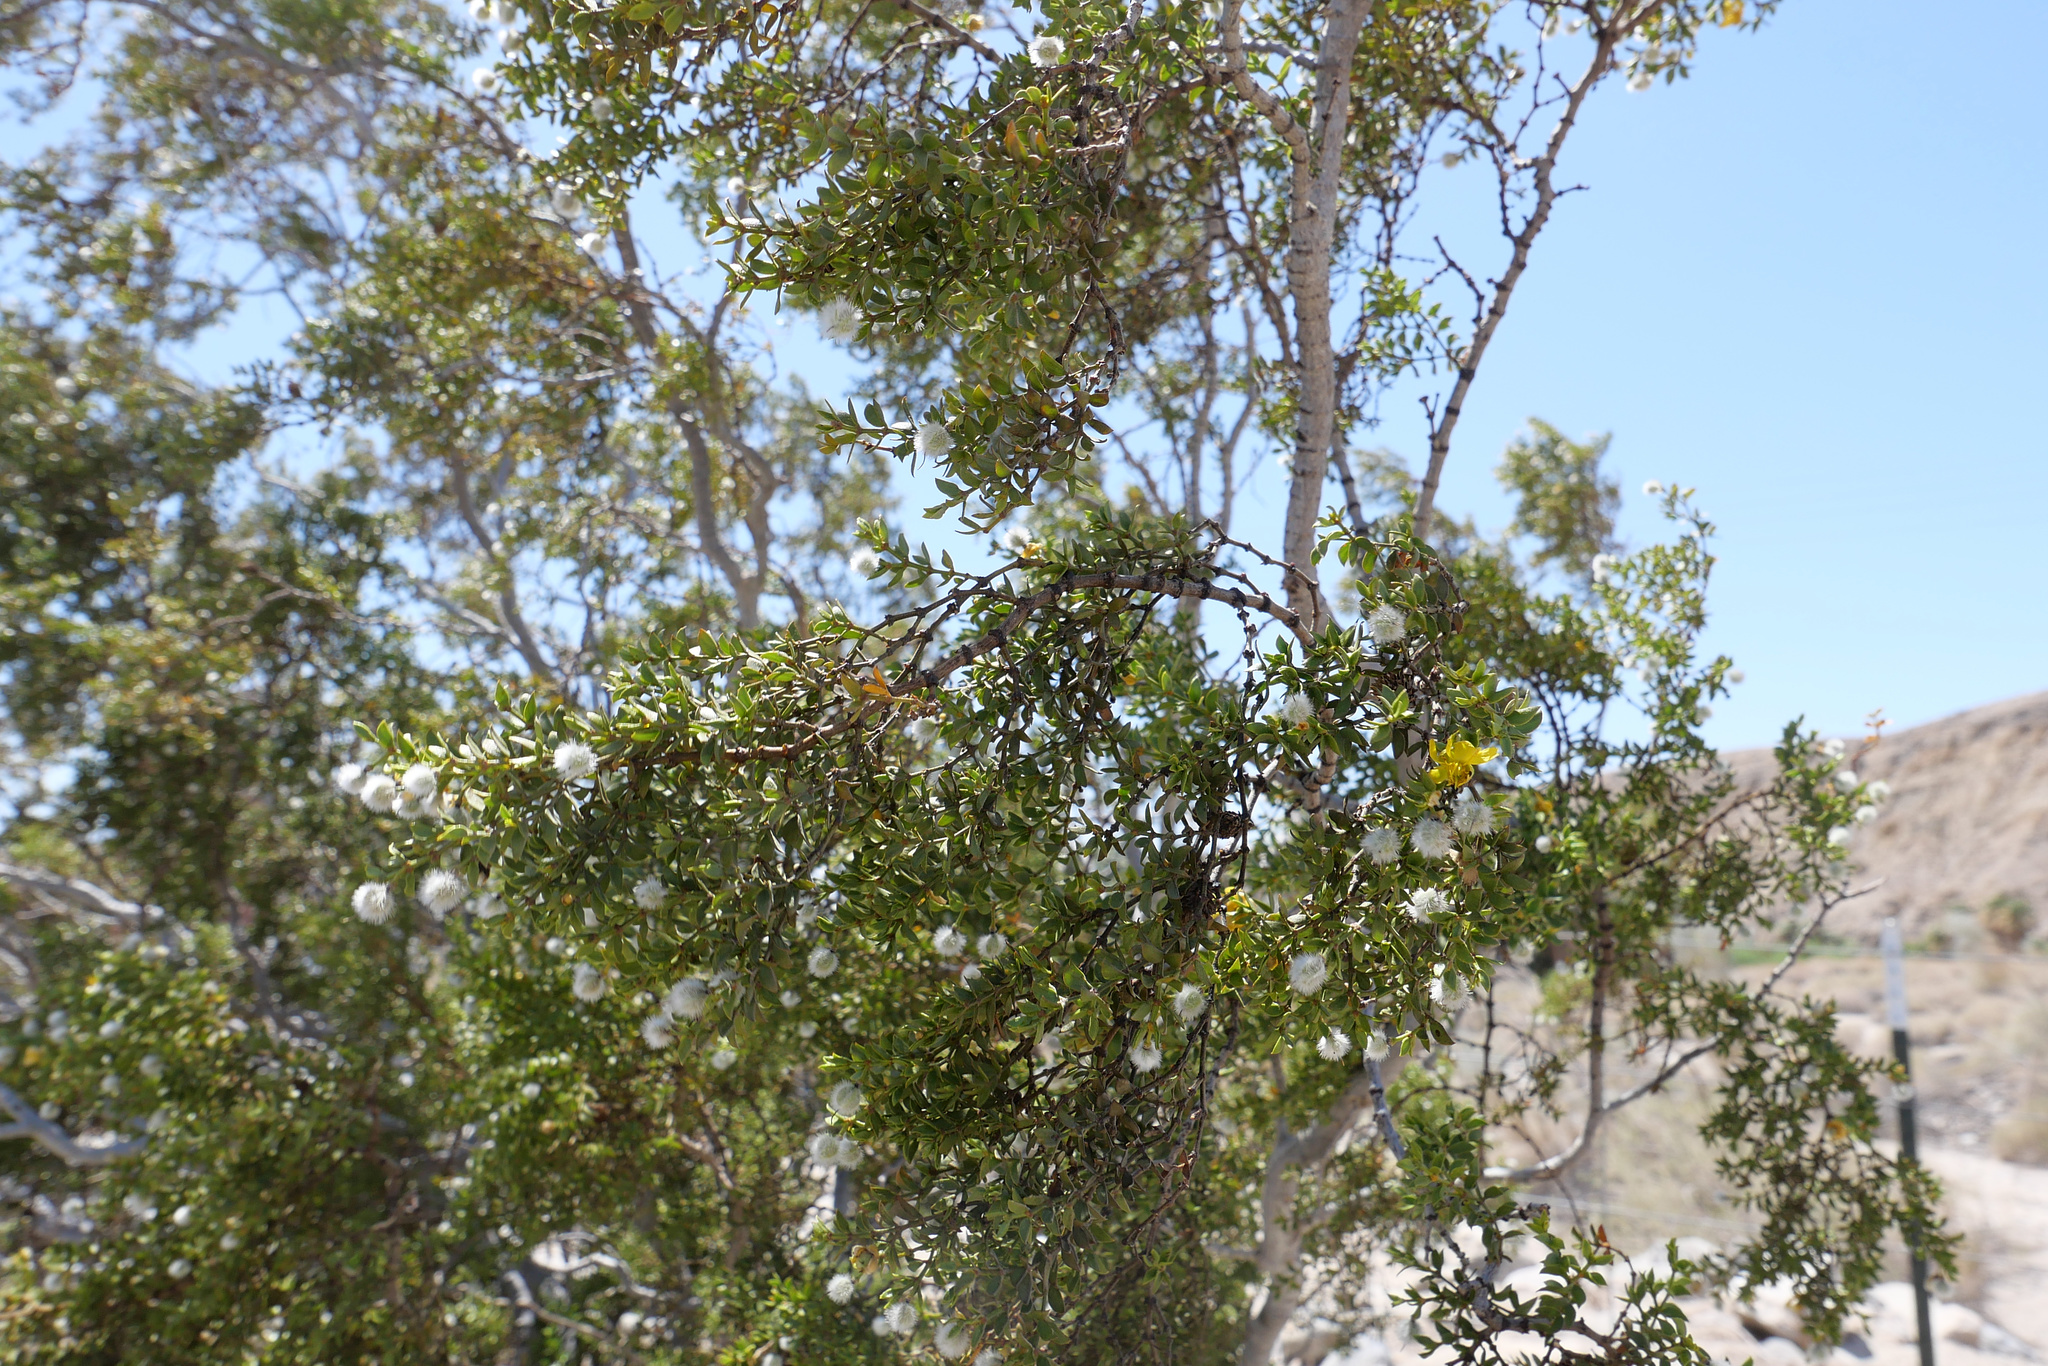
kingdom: Plantae
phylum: Tracheophyta
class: Magnoliopsida
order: Zygophyllales
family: Zygophyllaceae
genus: Larrea
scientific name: Larrea tridentata
